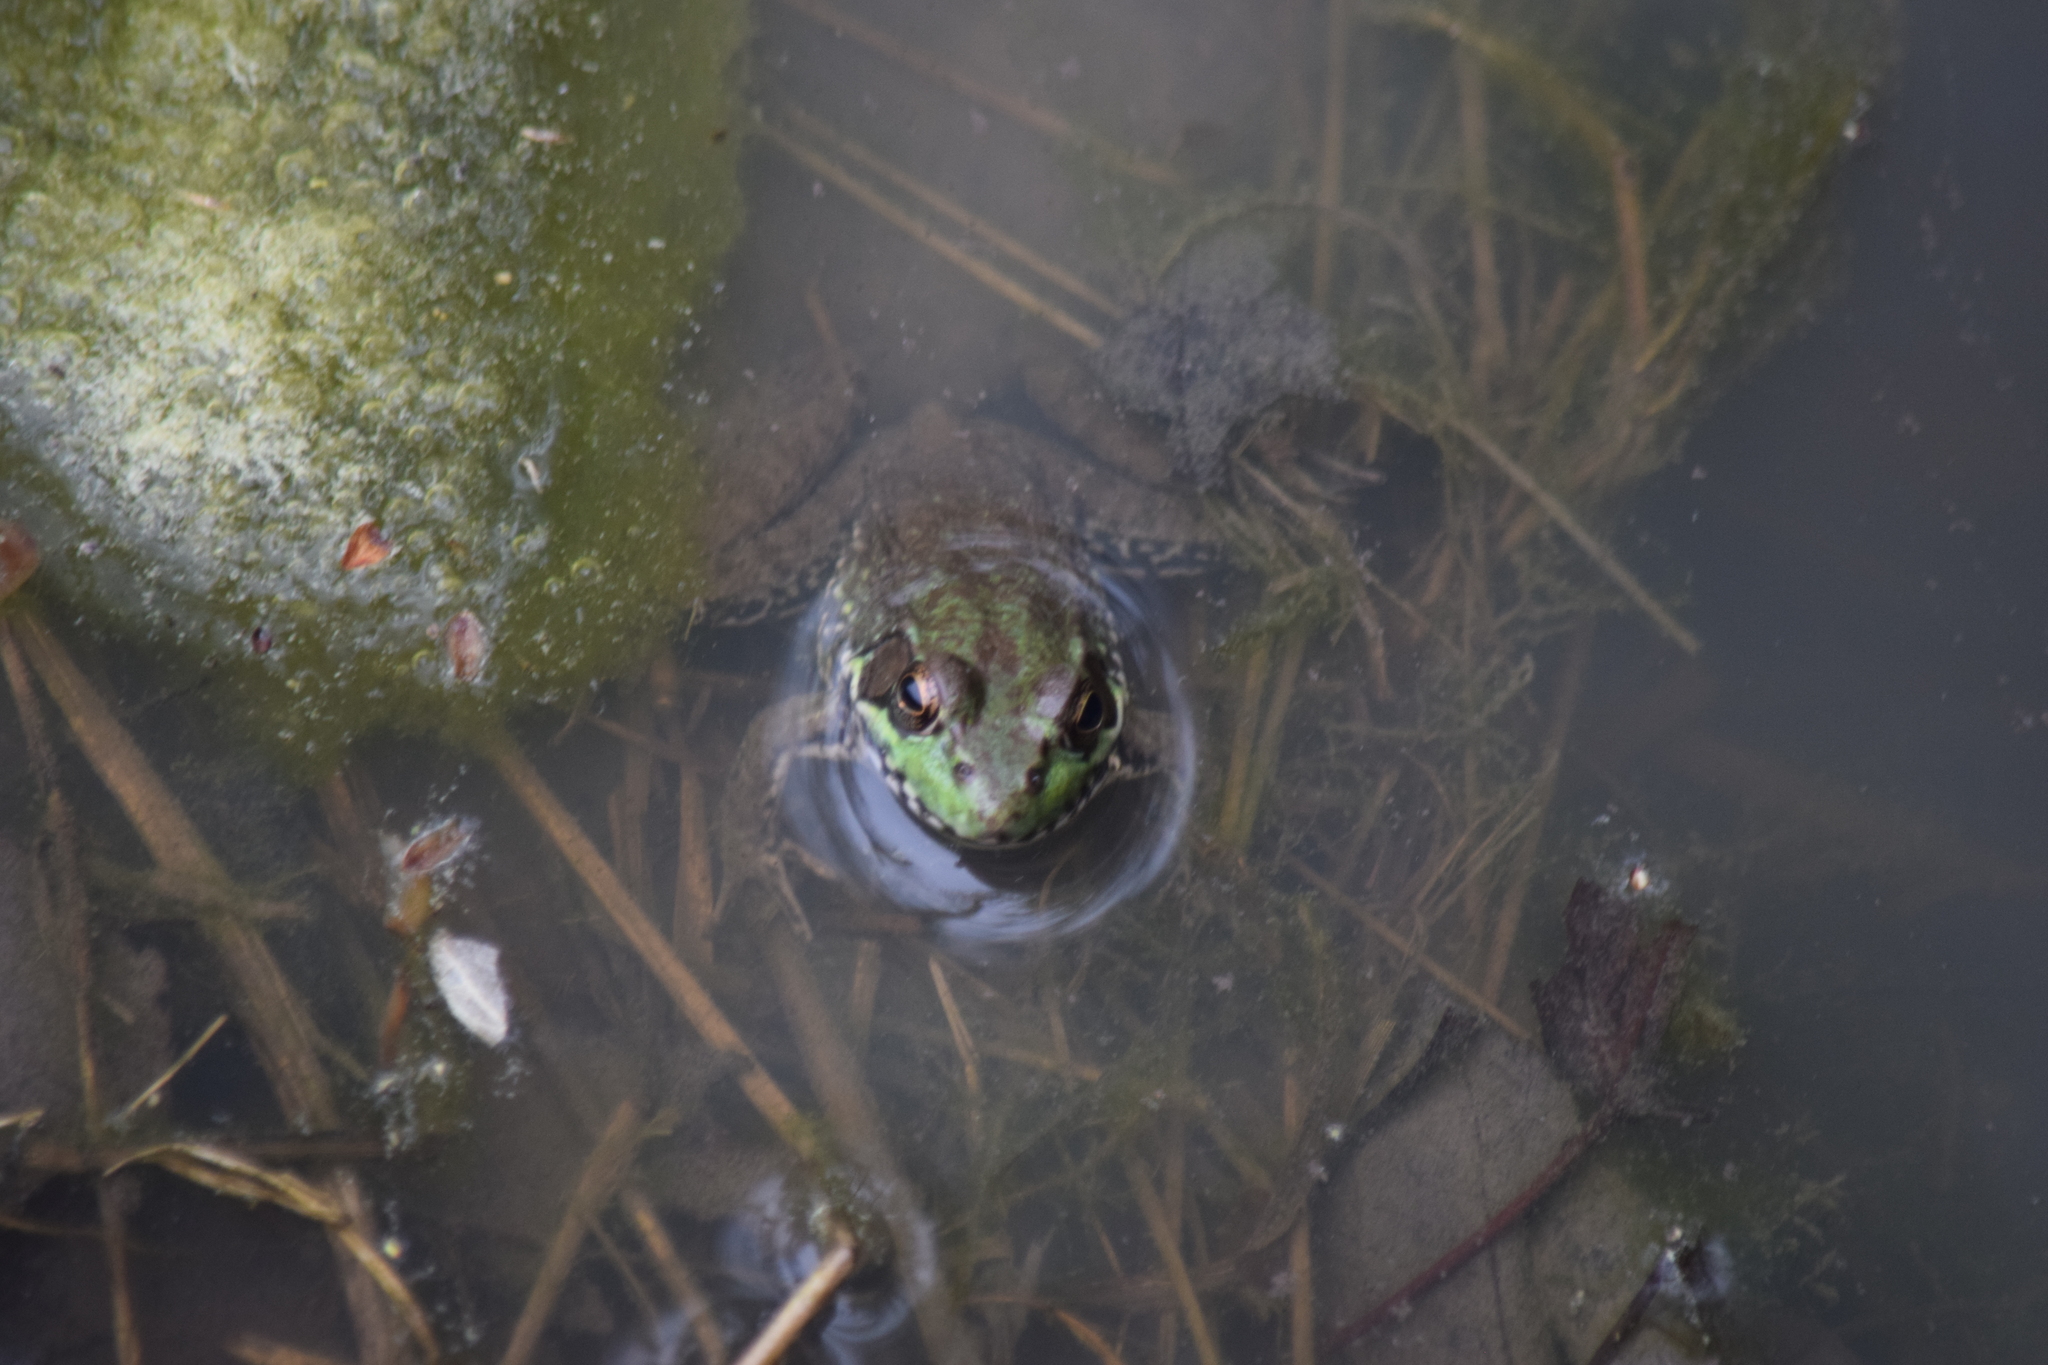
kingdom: Animalia
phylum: Chordata
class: Amphibia
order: Anura
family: Ranidae
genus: Lithobates
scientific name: Lithobates clamitans
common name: Green frog
